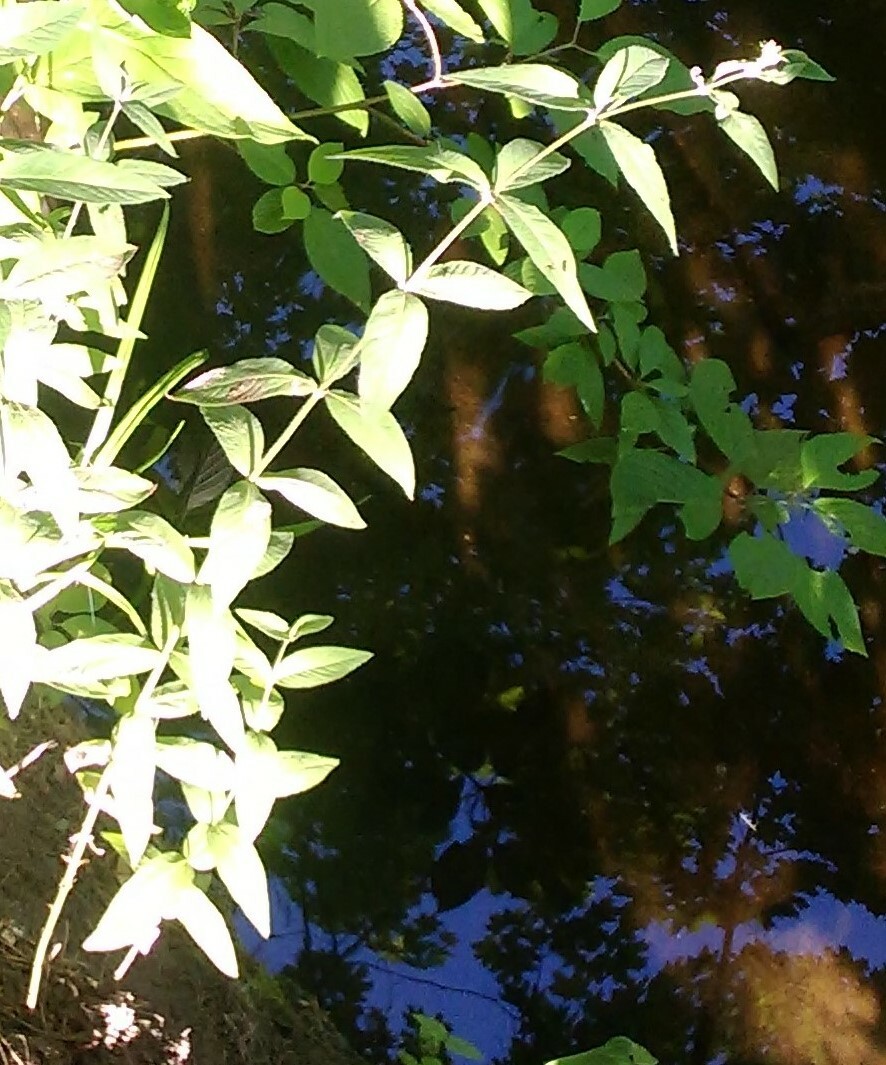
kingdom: Plantae
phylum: Tracheophyta
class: Magnoliopsida
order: Ericales
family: Primulaceae
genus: Lysimachia
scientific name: Lysimachia vulgaris
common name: Yellow loosestrife
